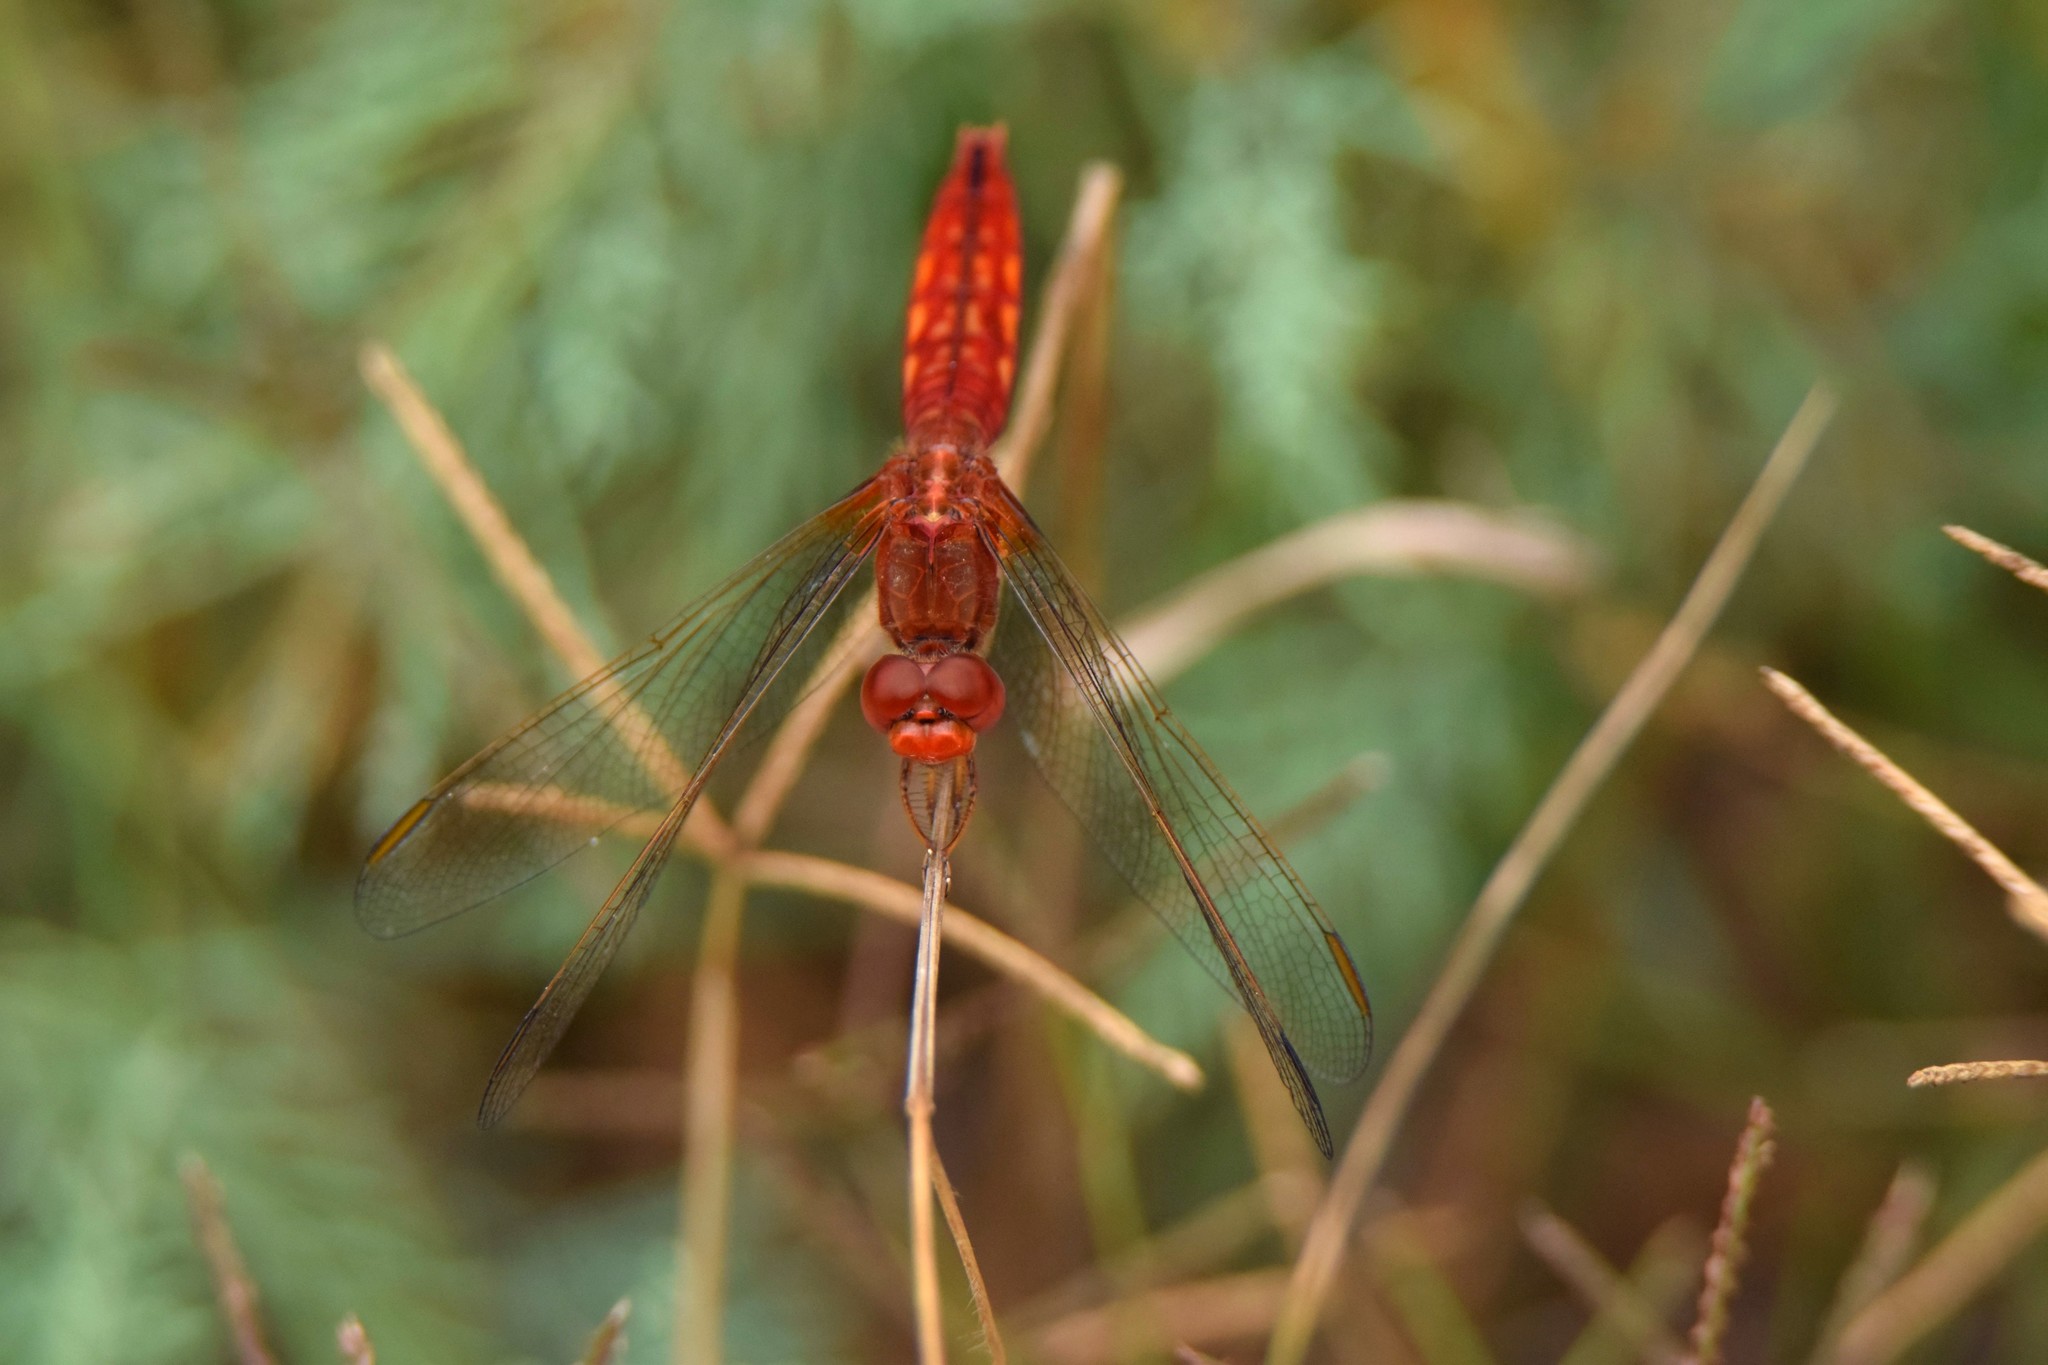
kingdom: Animalia
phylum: Arthropoda
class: Insecta
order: Odonata
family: Libellulidae
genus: Crocothemis
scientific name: Crocothemis erythraea
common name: Scarlet dragonfly
